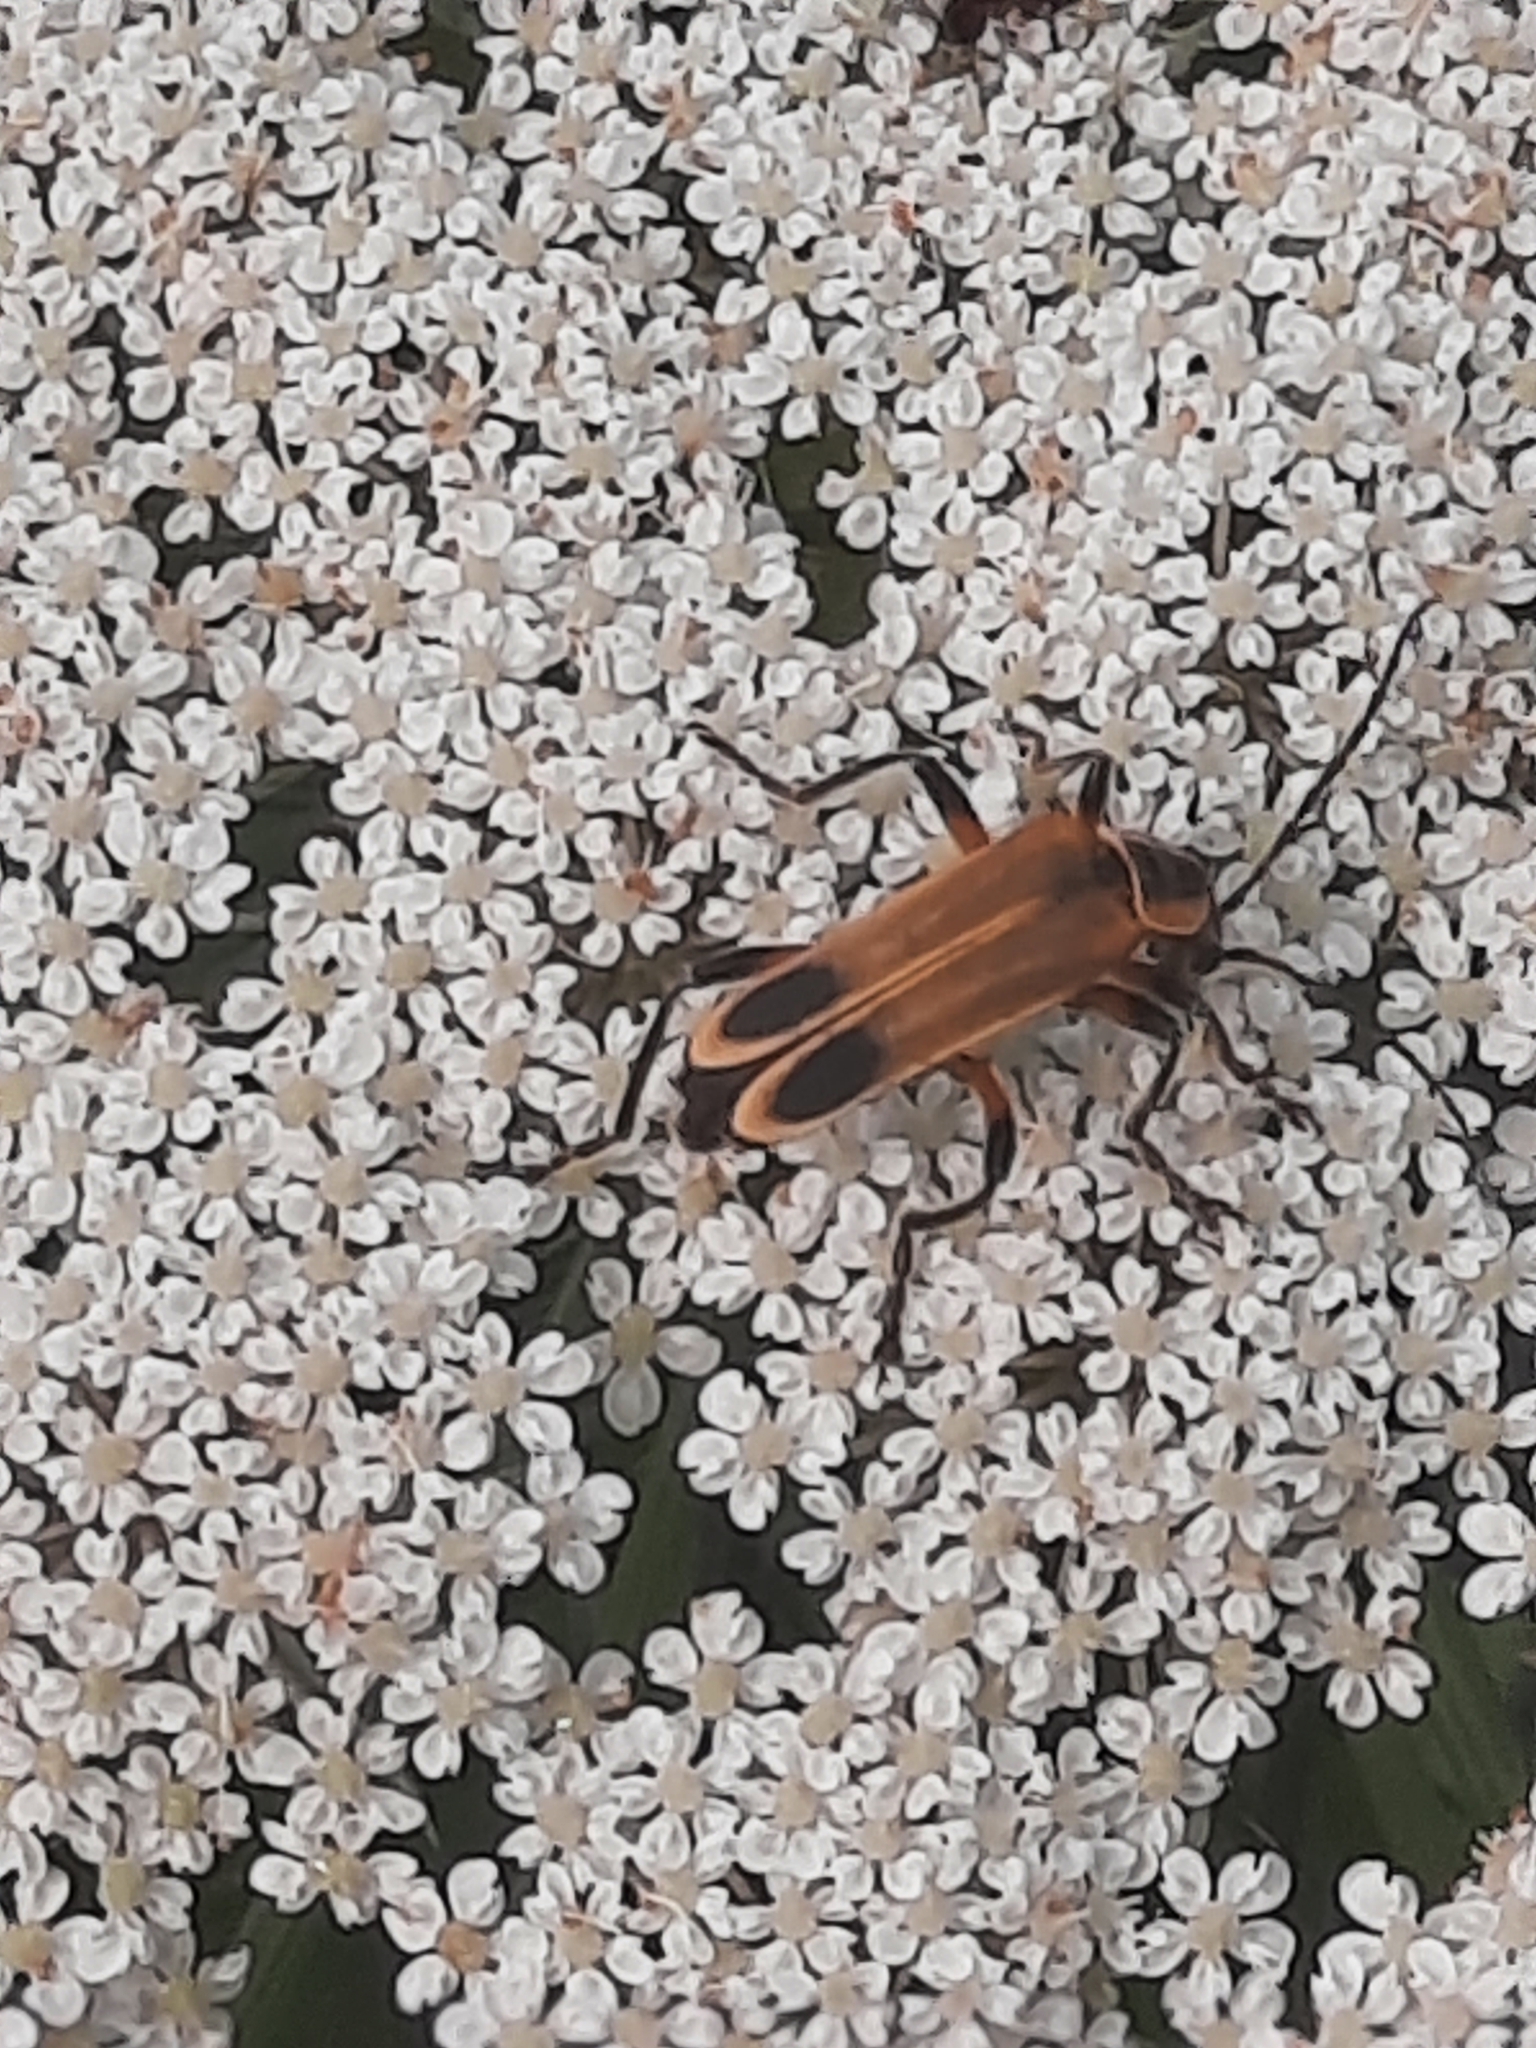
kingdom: Animalia
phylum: Arthropoda
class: Insecta
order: Coleoptera
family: Cantharidae
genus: Chauliognathus
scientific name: Chauliognathus marginatus
